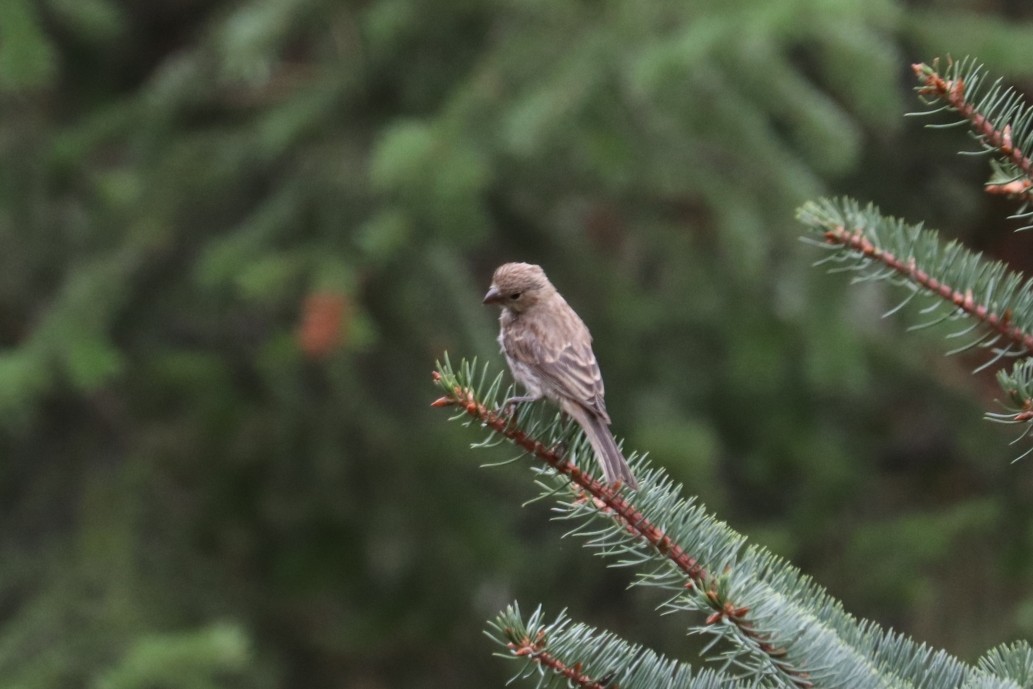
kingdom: Animalia
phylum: Chordata
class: Aves
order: Passeriformes
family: Fringillidae
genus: Haemorhous
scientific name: Haemorhous mexicanus
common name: House finch
